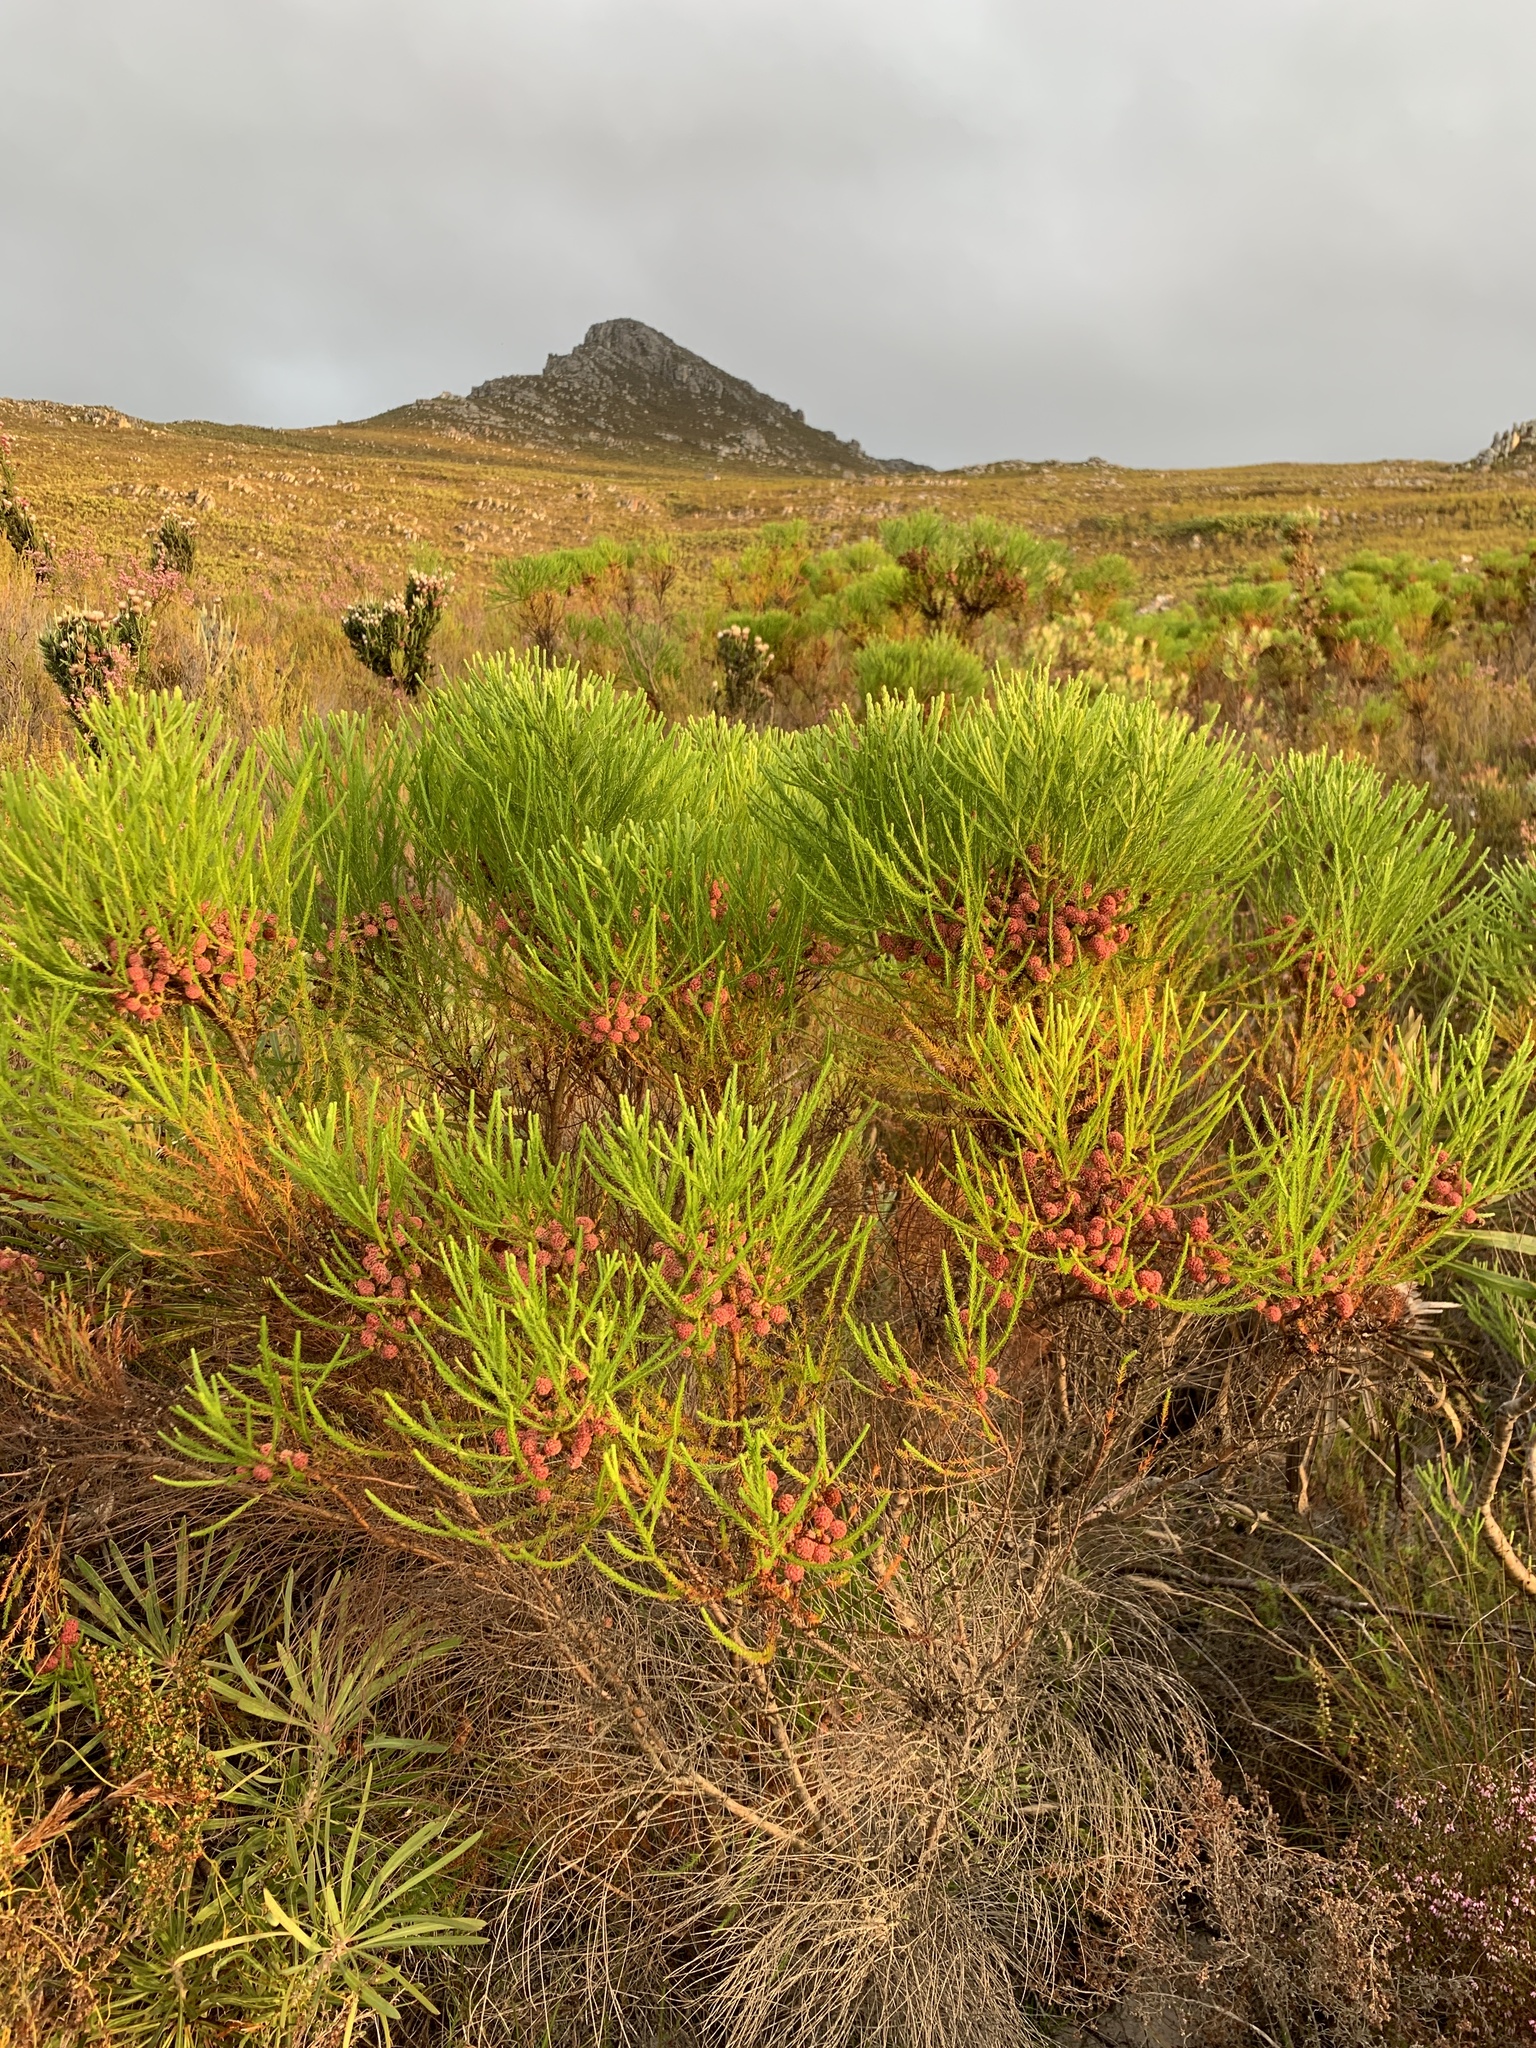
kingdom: Plantae
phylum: Tracheophyta
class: Magnoliopsida
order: Bruniales
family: Bruniaceae
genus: Berzelia
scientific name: Berzelia lanuginosa
